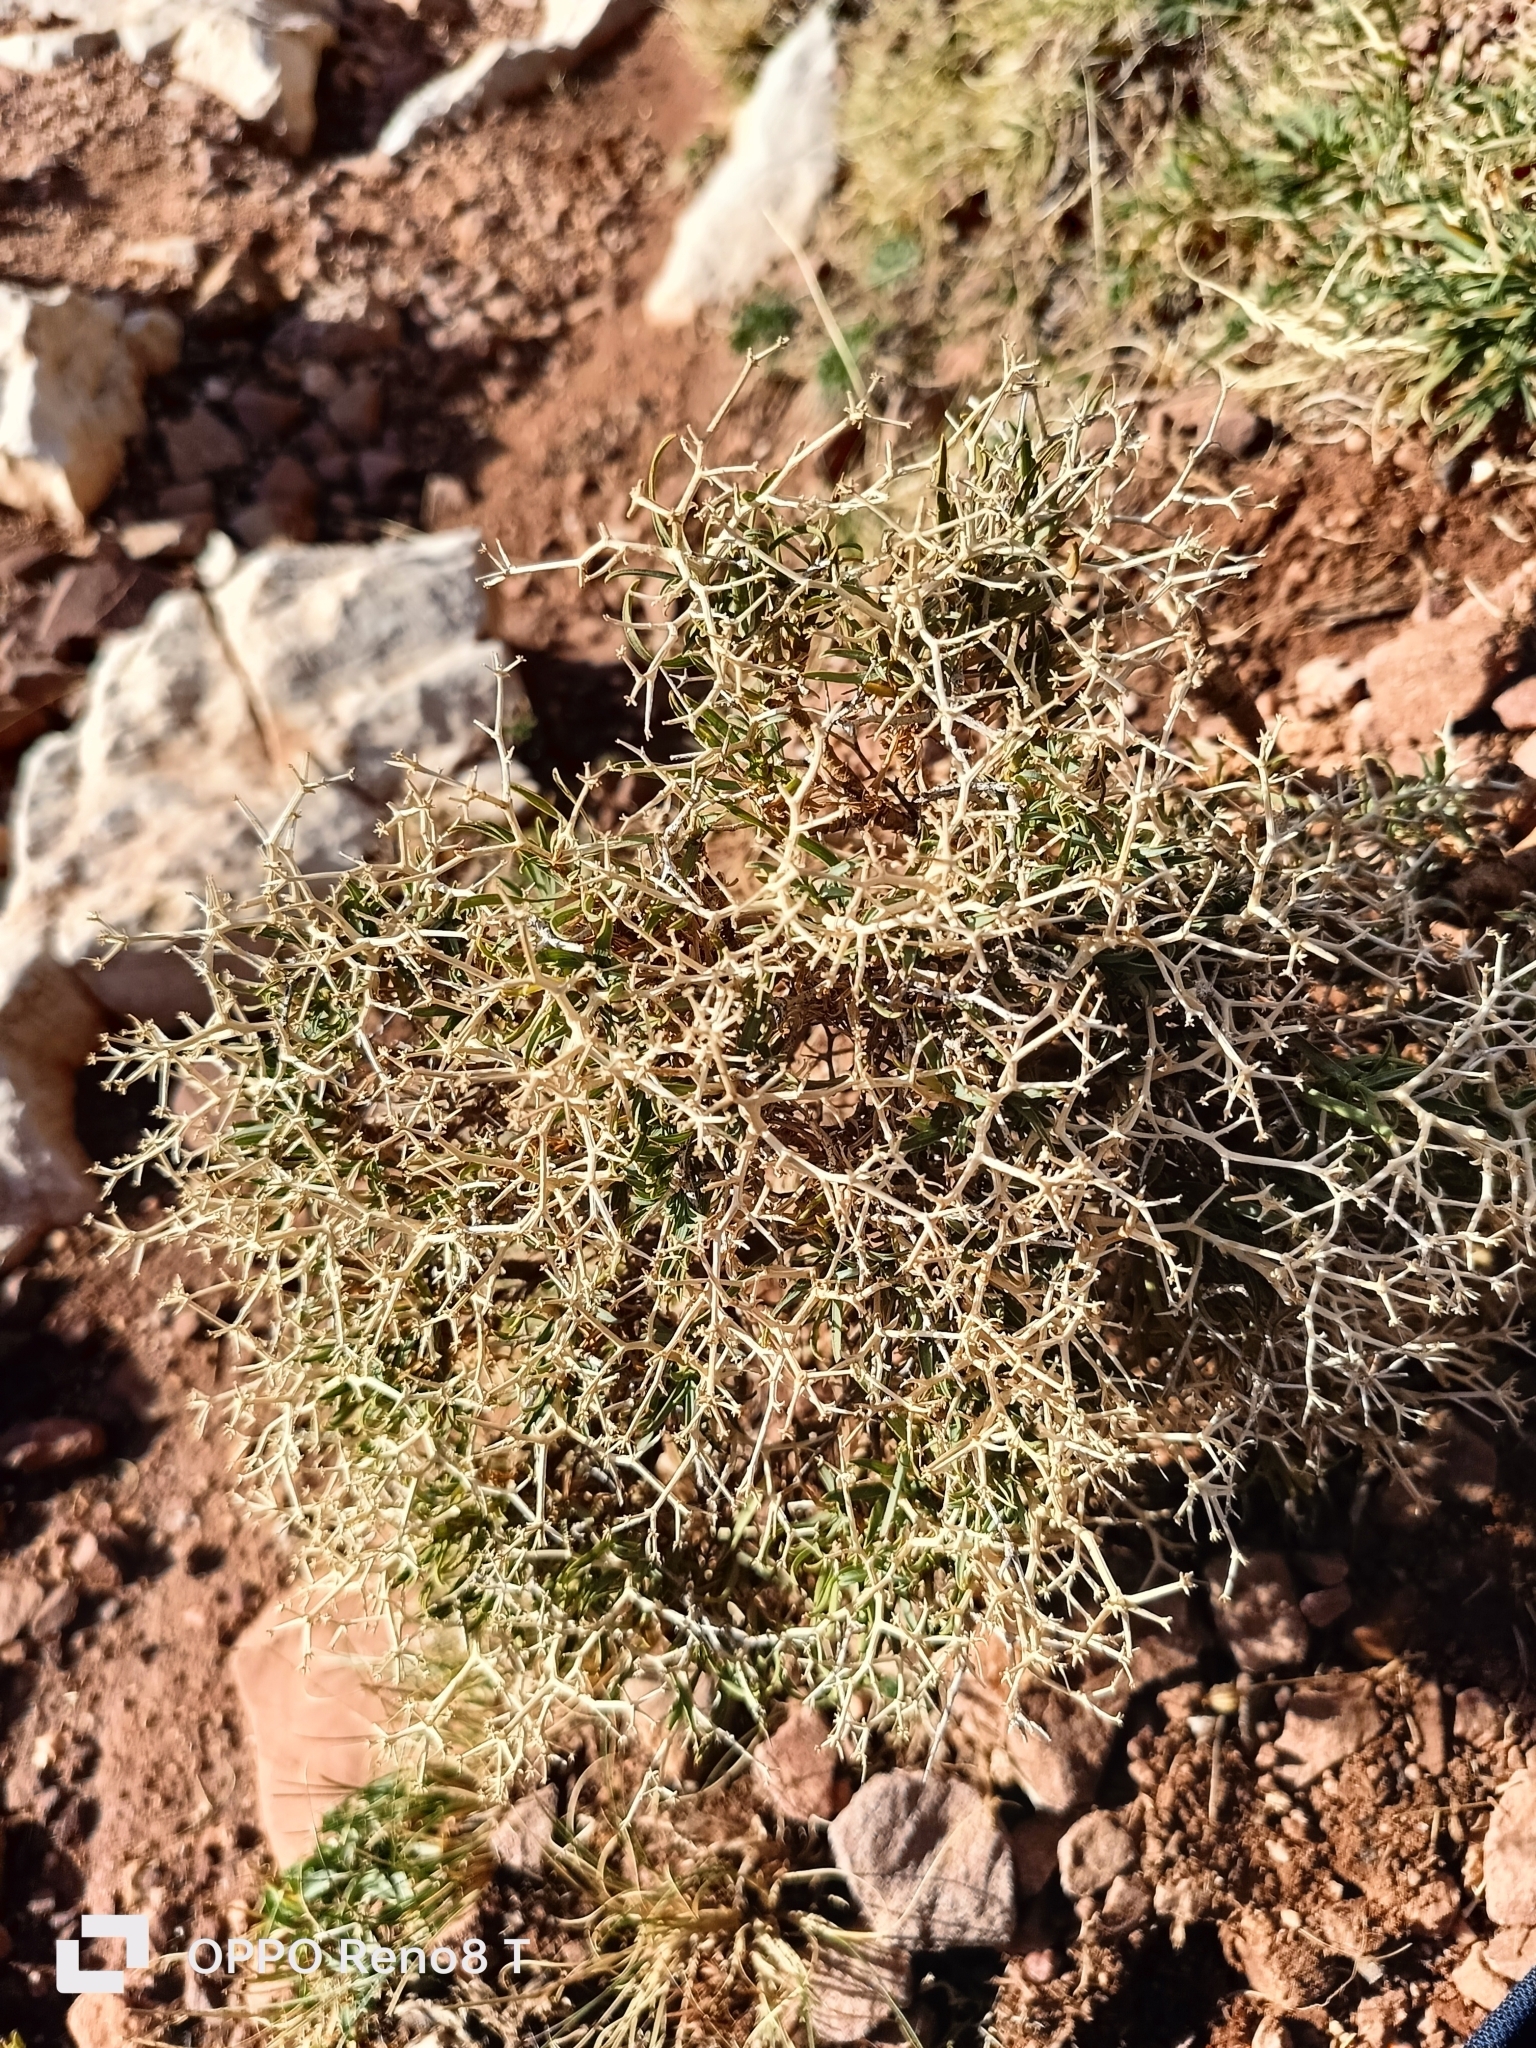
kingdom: Plantae
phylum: Tracheophyta
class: Magnoliopsida
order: Apiales
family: Apiaceae
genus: Bupleurum
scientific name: Bupleurum fruticescens
